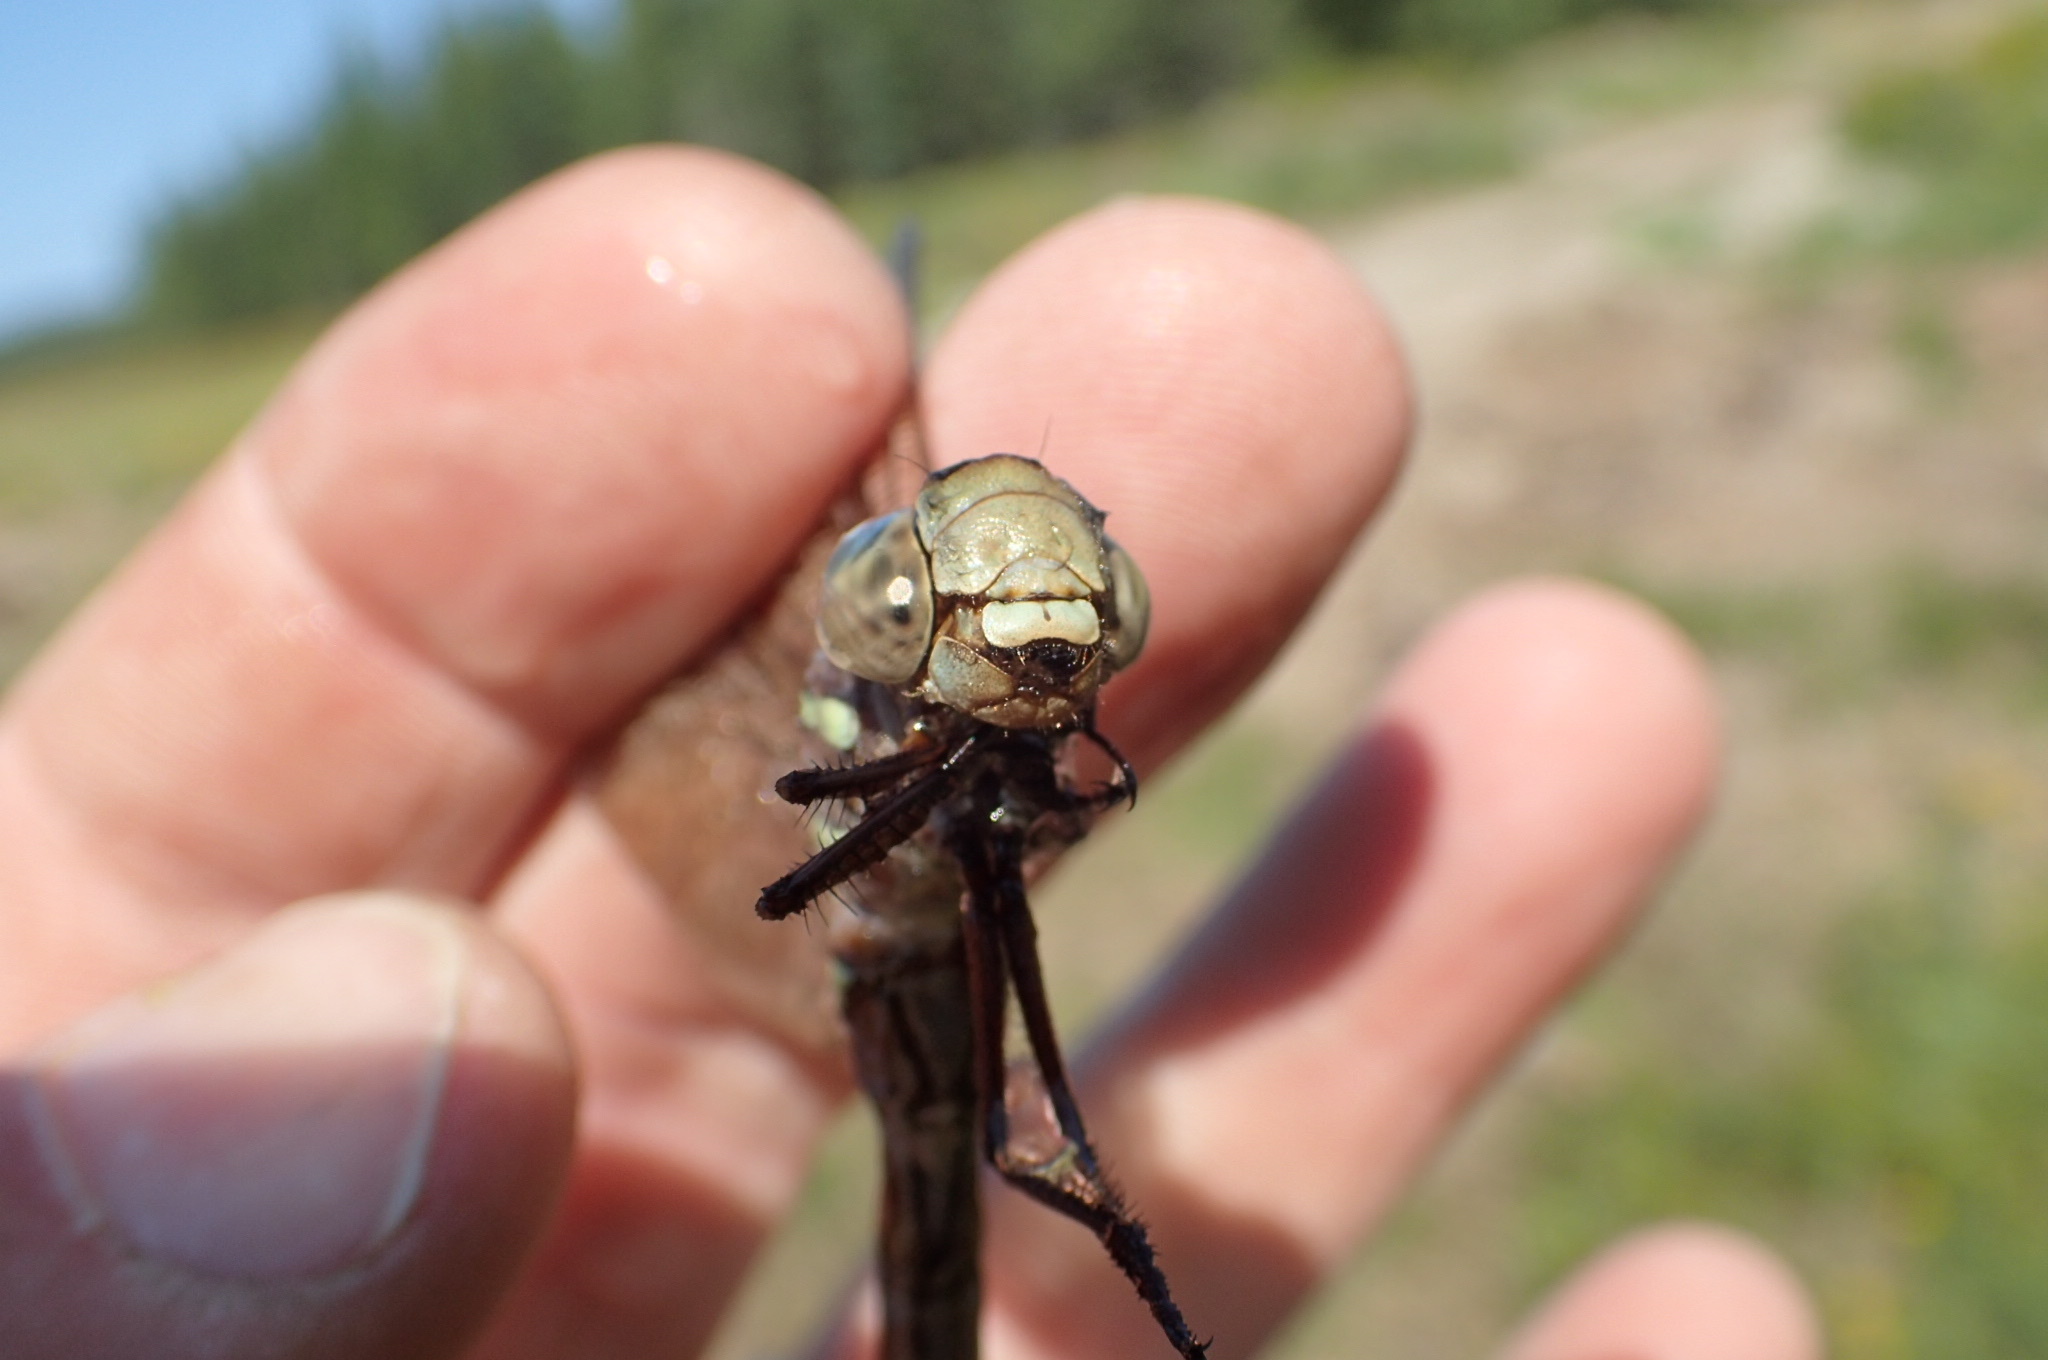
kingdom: Animalia
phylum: Arthropoda
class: Insecta
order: Odonata
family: Aeshnidae
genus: Aeshna
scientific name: Aeshna umbrosa
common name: Shadow darner
